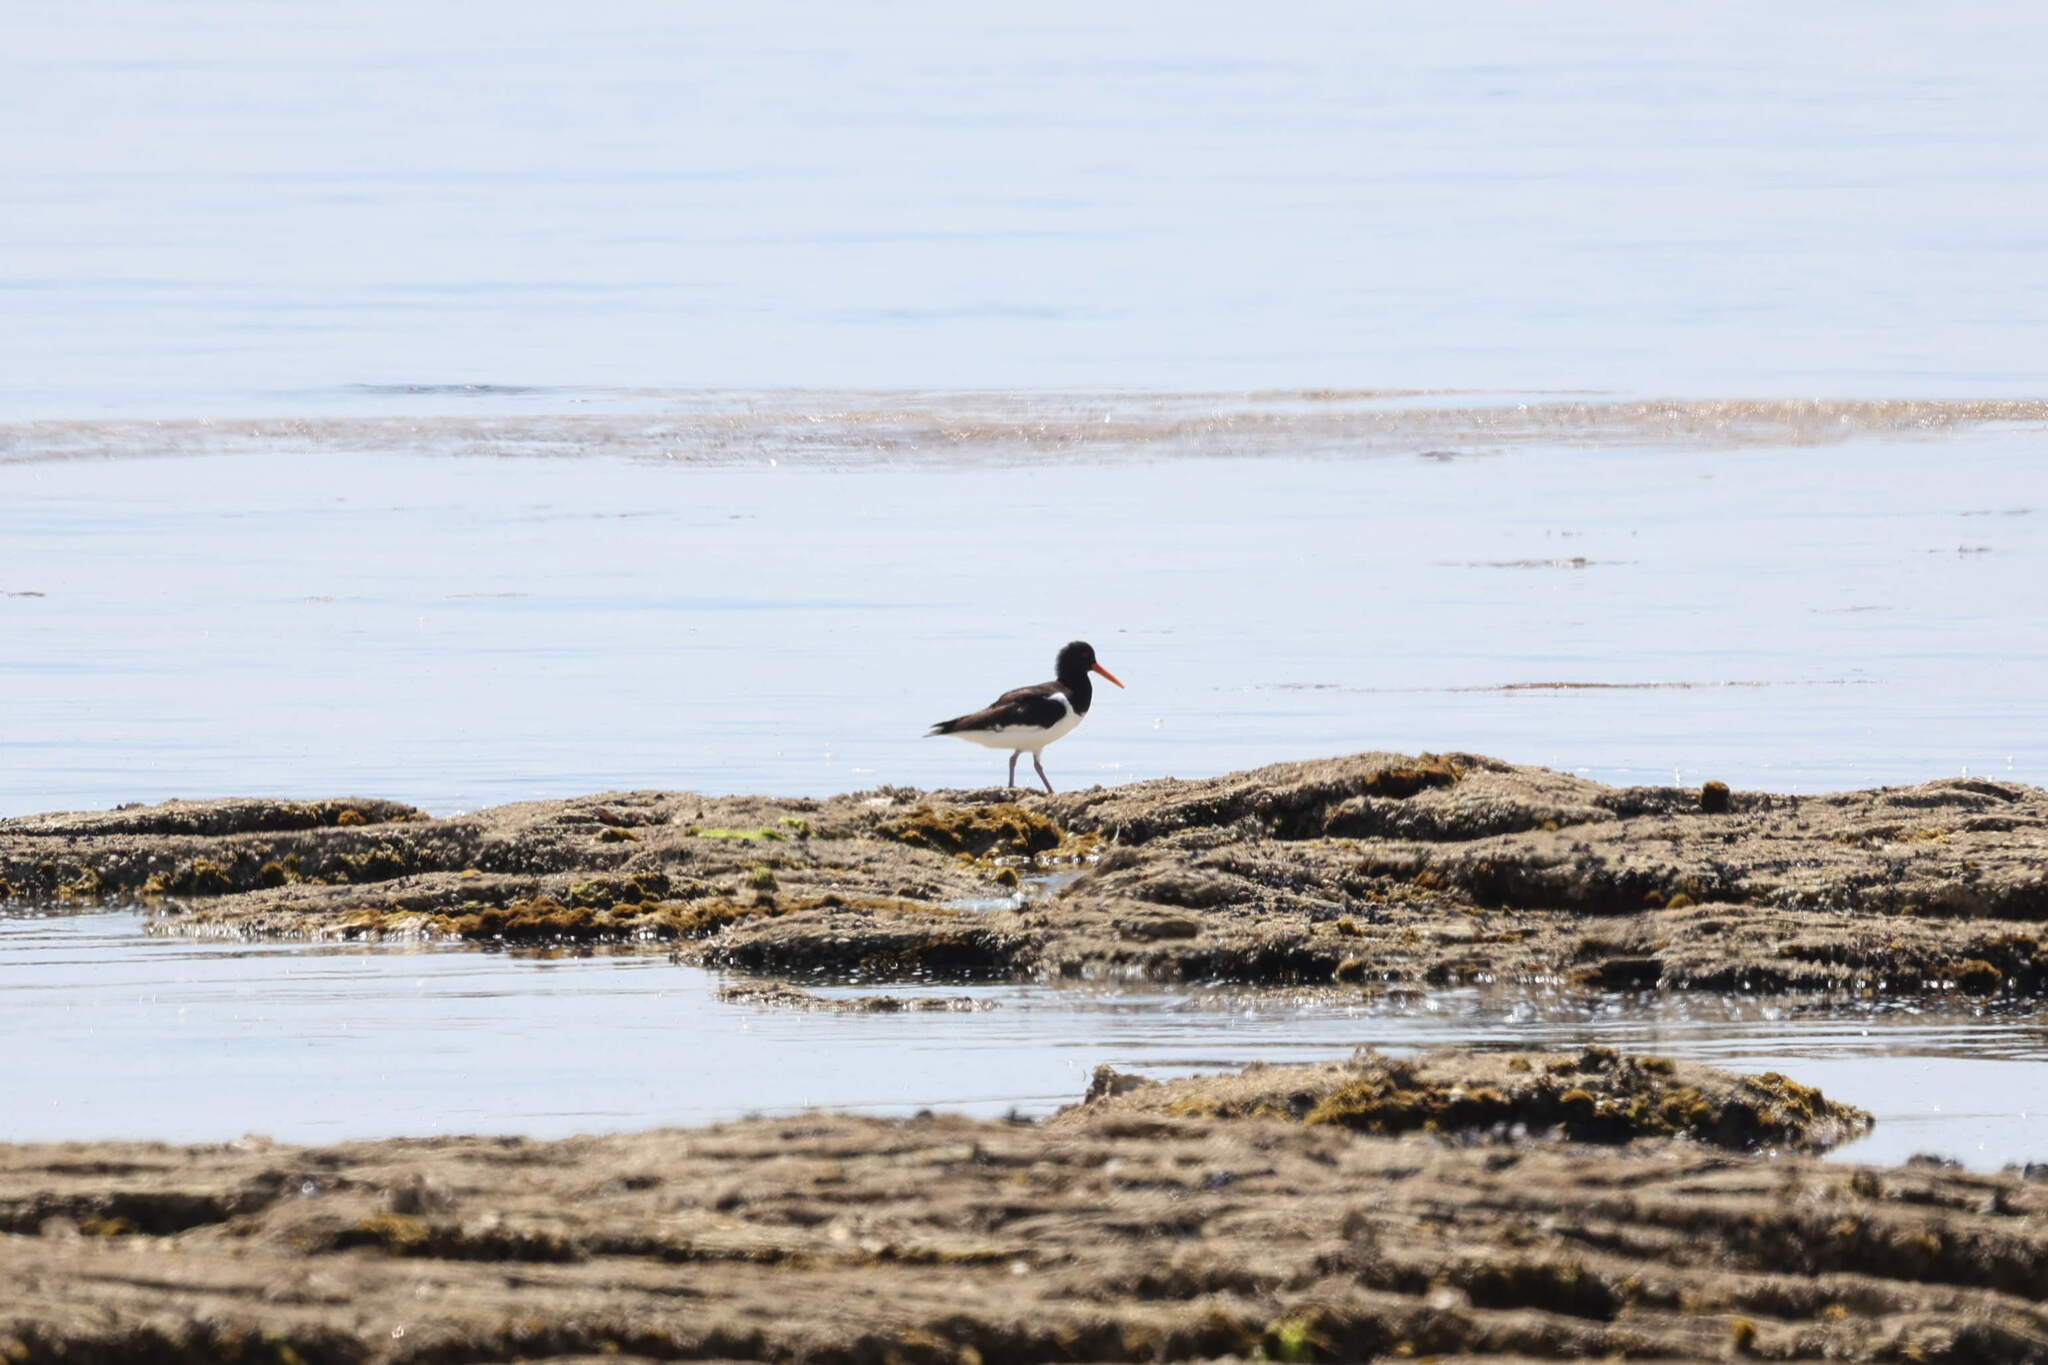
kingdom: Animalia
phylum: Chordata
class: Aves
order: Charadriiformes
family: Haematopodidae
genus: Haematopus
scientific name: Haematopus ostralegus
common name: Eurasian oystercatcher
